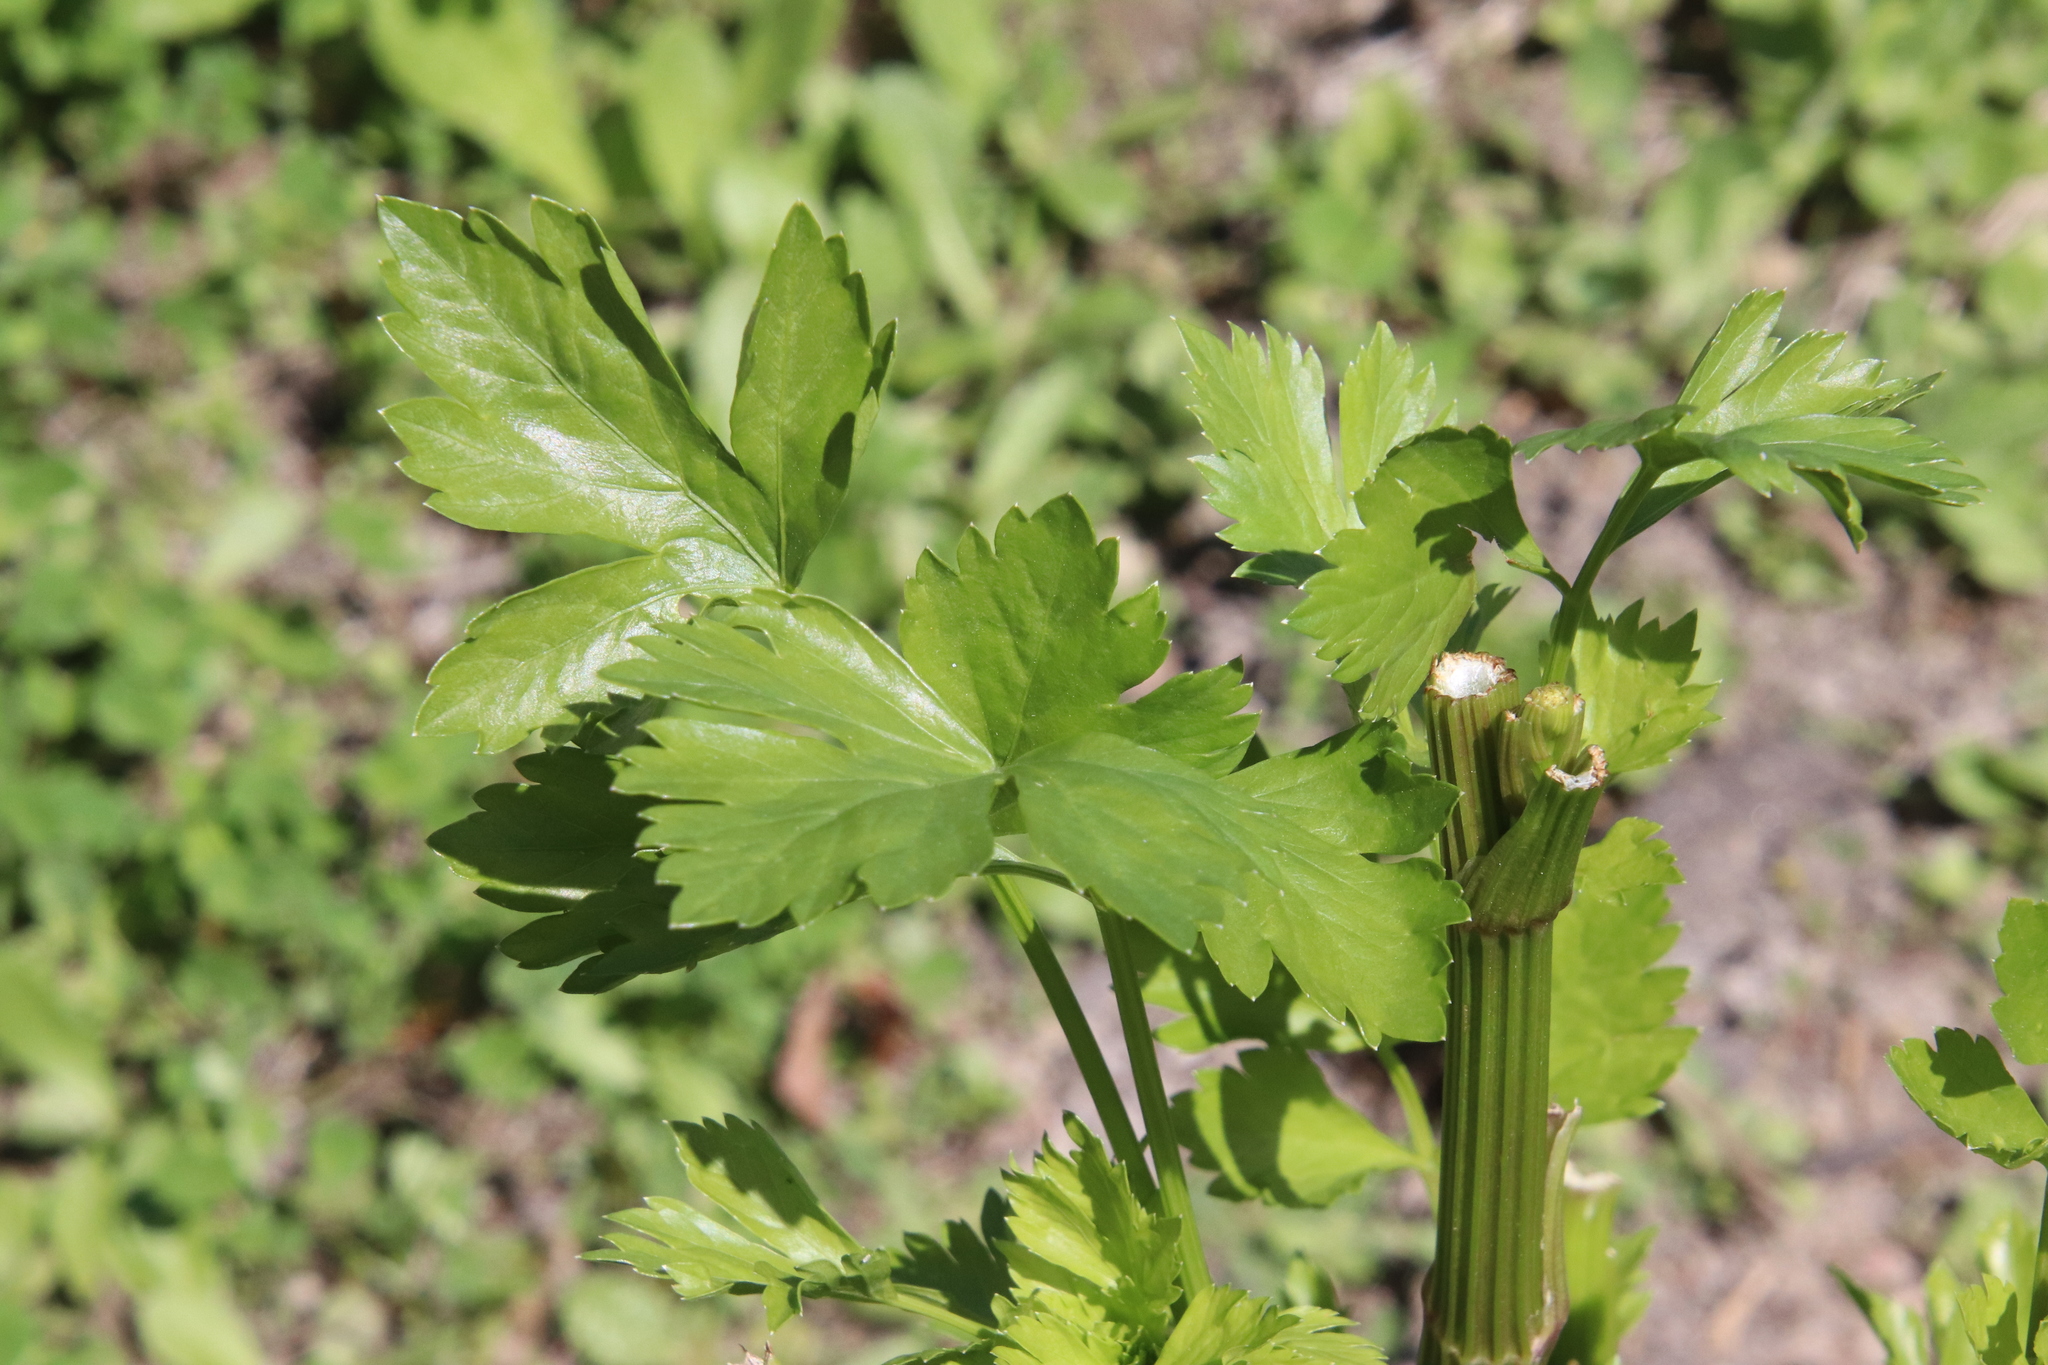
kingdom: Plantae
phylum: Tracheophyta
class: Magnoliopsida
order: Apiales
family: Apiaceae
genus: Apium
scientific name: Apium graveolens
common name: Wild celery
